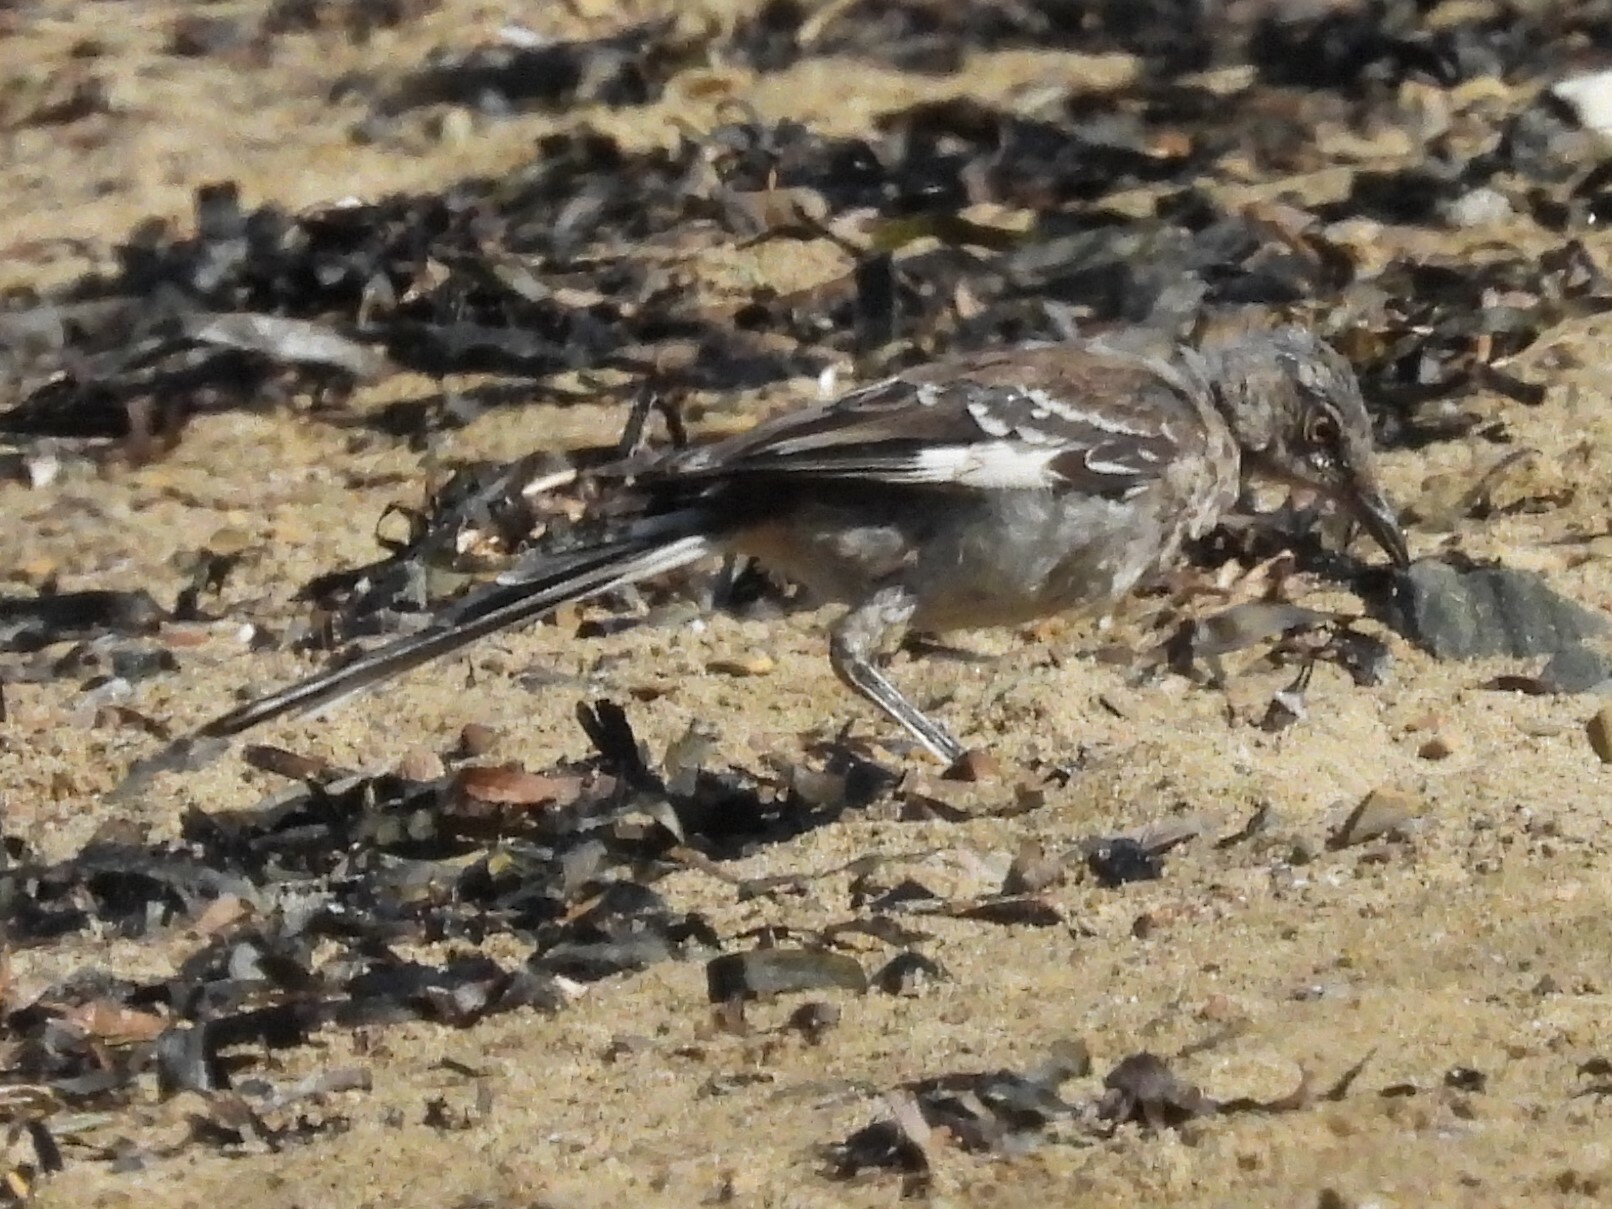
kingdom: Animalia
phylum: Chordata
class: Aves
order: Passeriformes
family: Mimidae
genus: Mimus
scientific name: Mimus polyglottos
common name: Northern mockingbird
